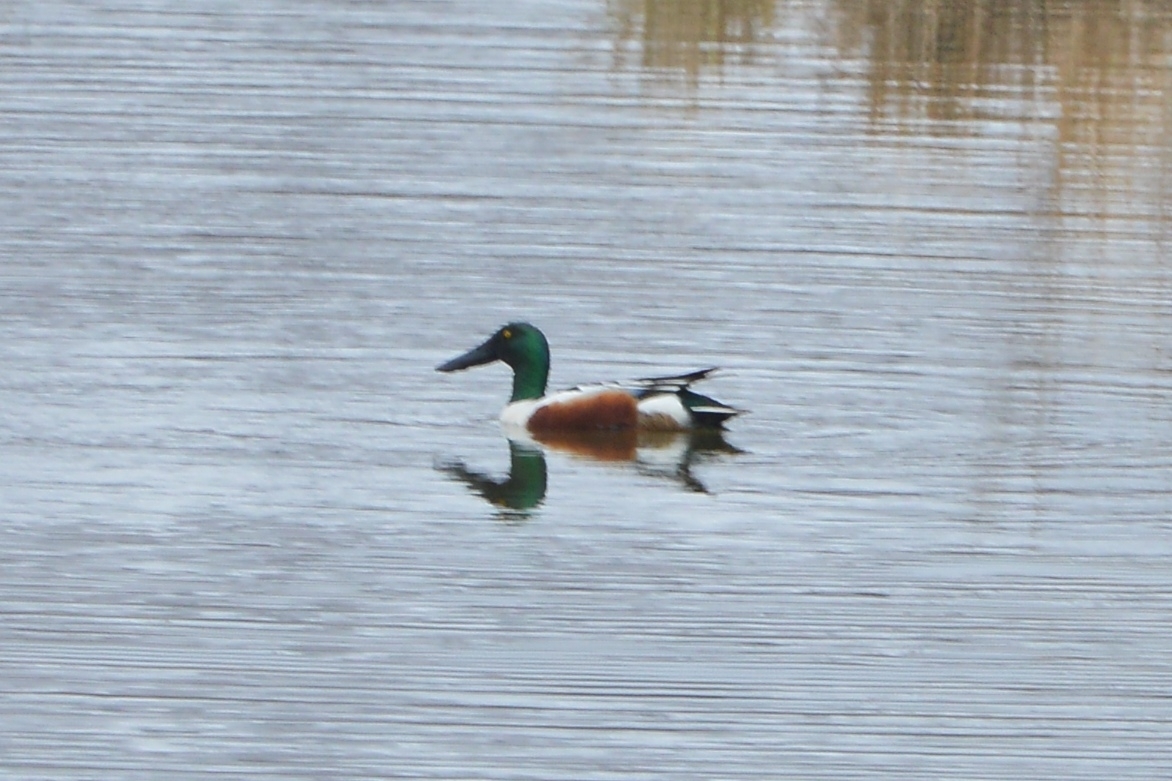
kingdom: Animalia
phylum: Chordata
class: Aves
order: Anseriformes
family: Anatidae
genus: Spatula
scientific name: Spatula clypeata
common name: Northern shoveler
